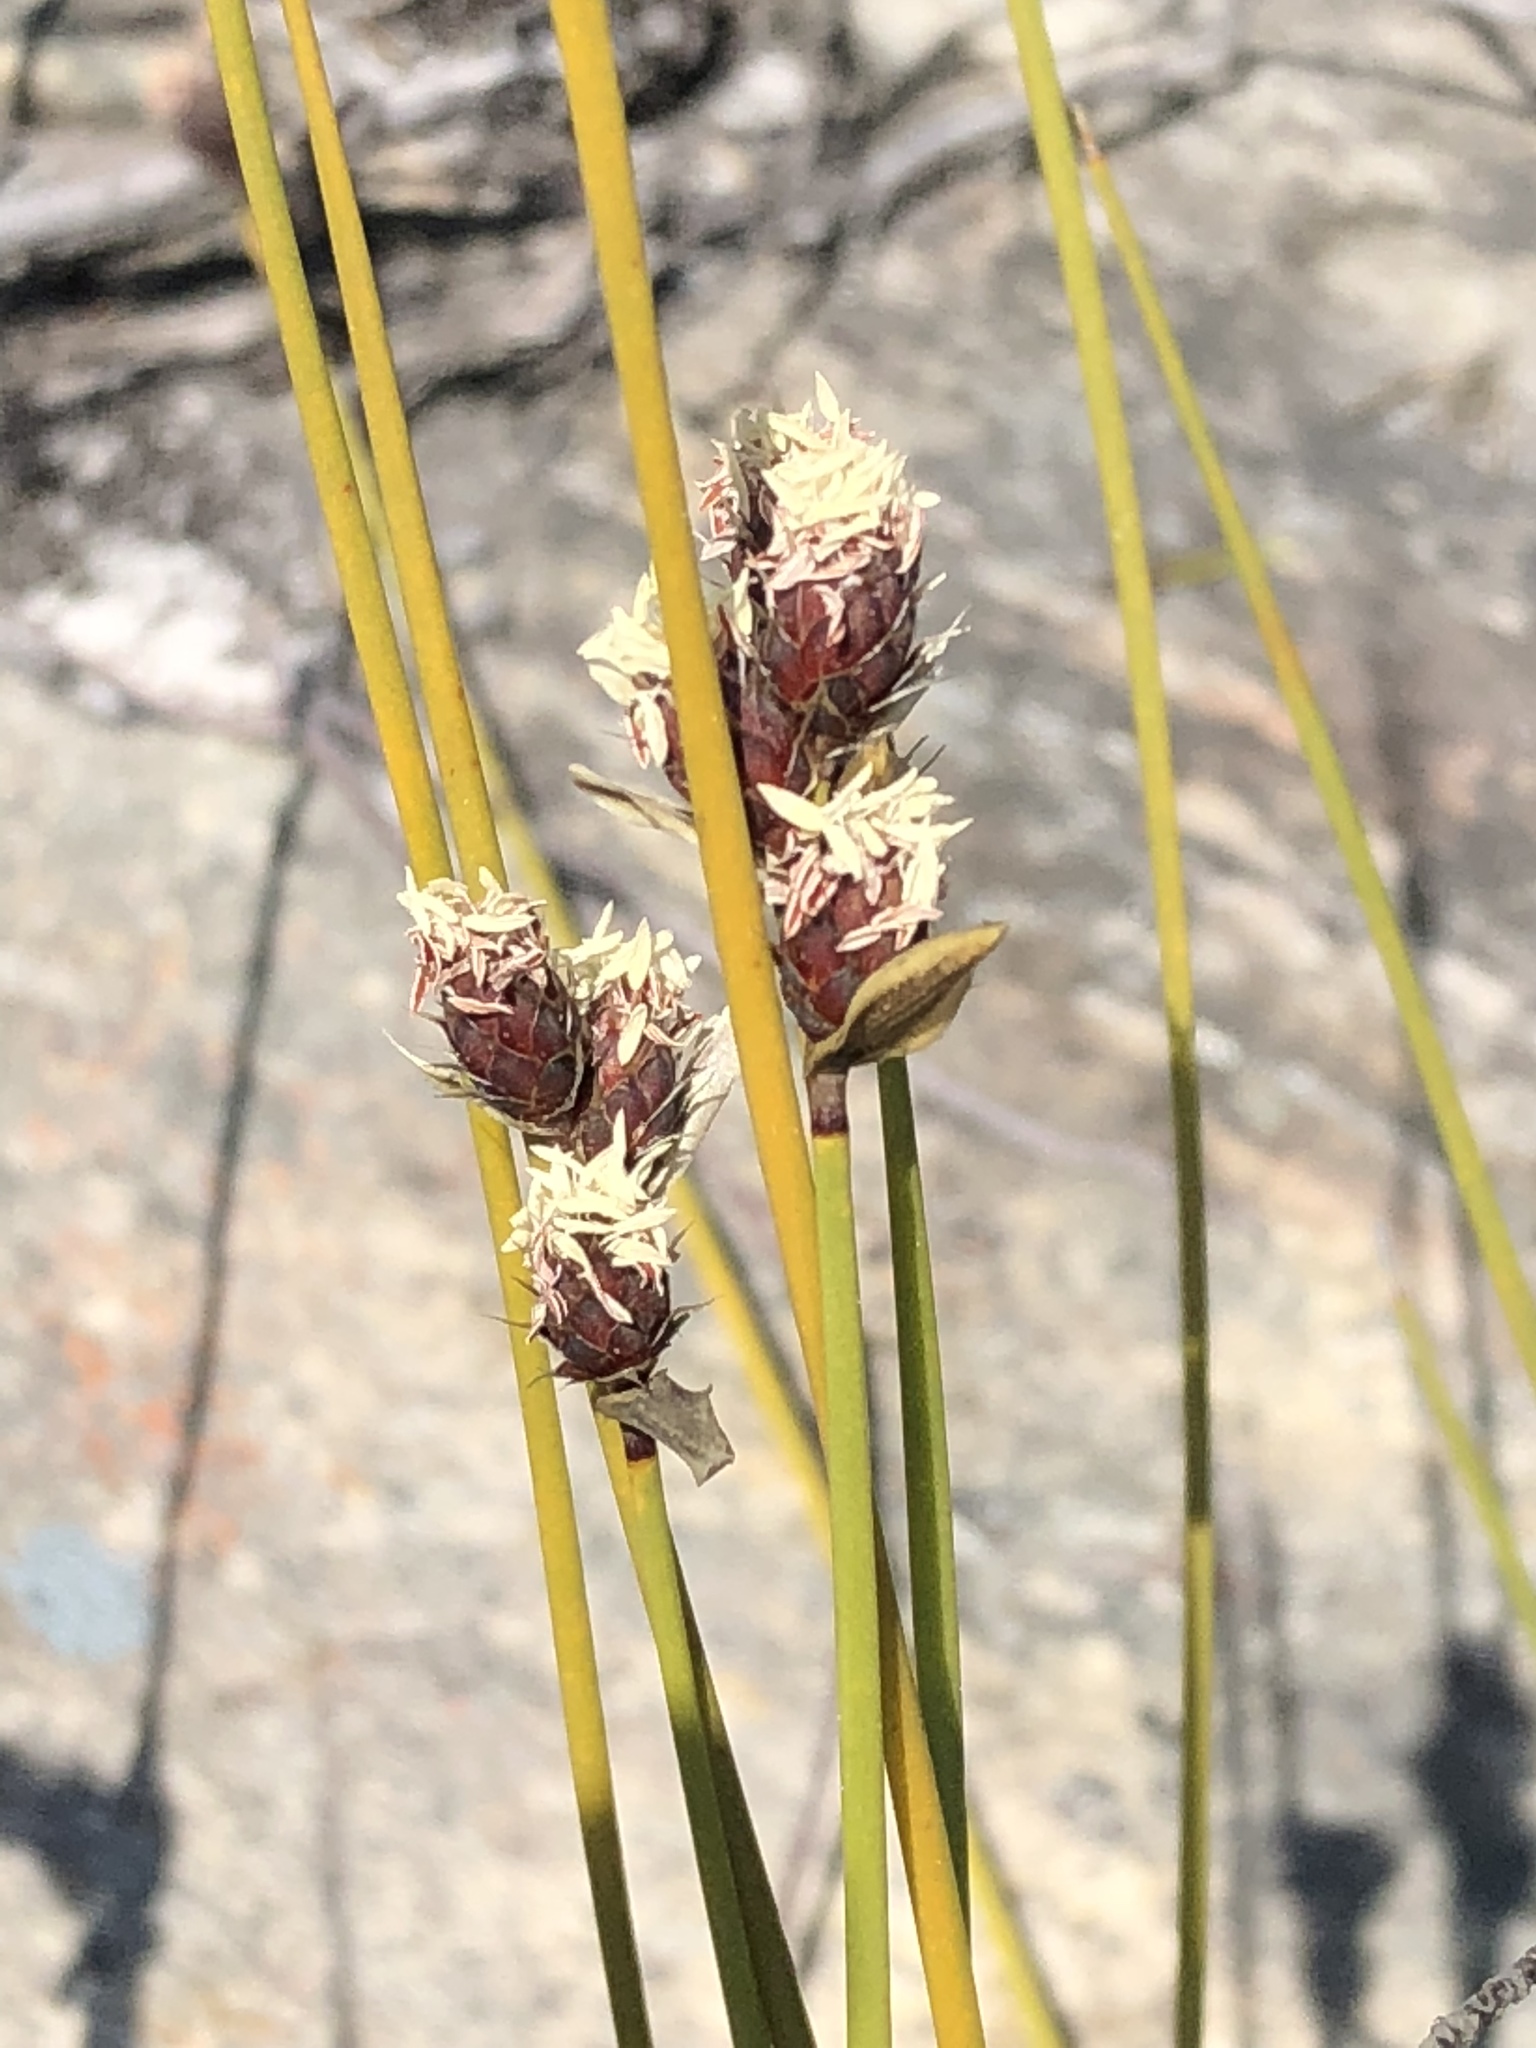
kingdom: Plantae
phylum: Tracheophyta
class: Liliopsida
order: Poales
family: Restionaceae
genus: Hypodiscus
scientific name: Hypodiscus synchroolepis
